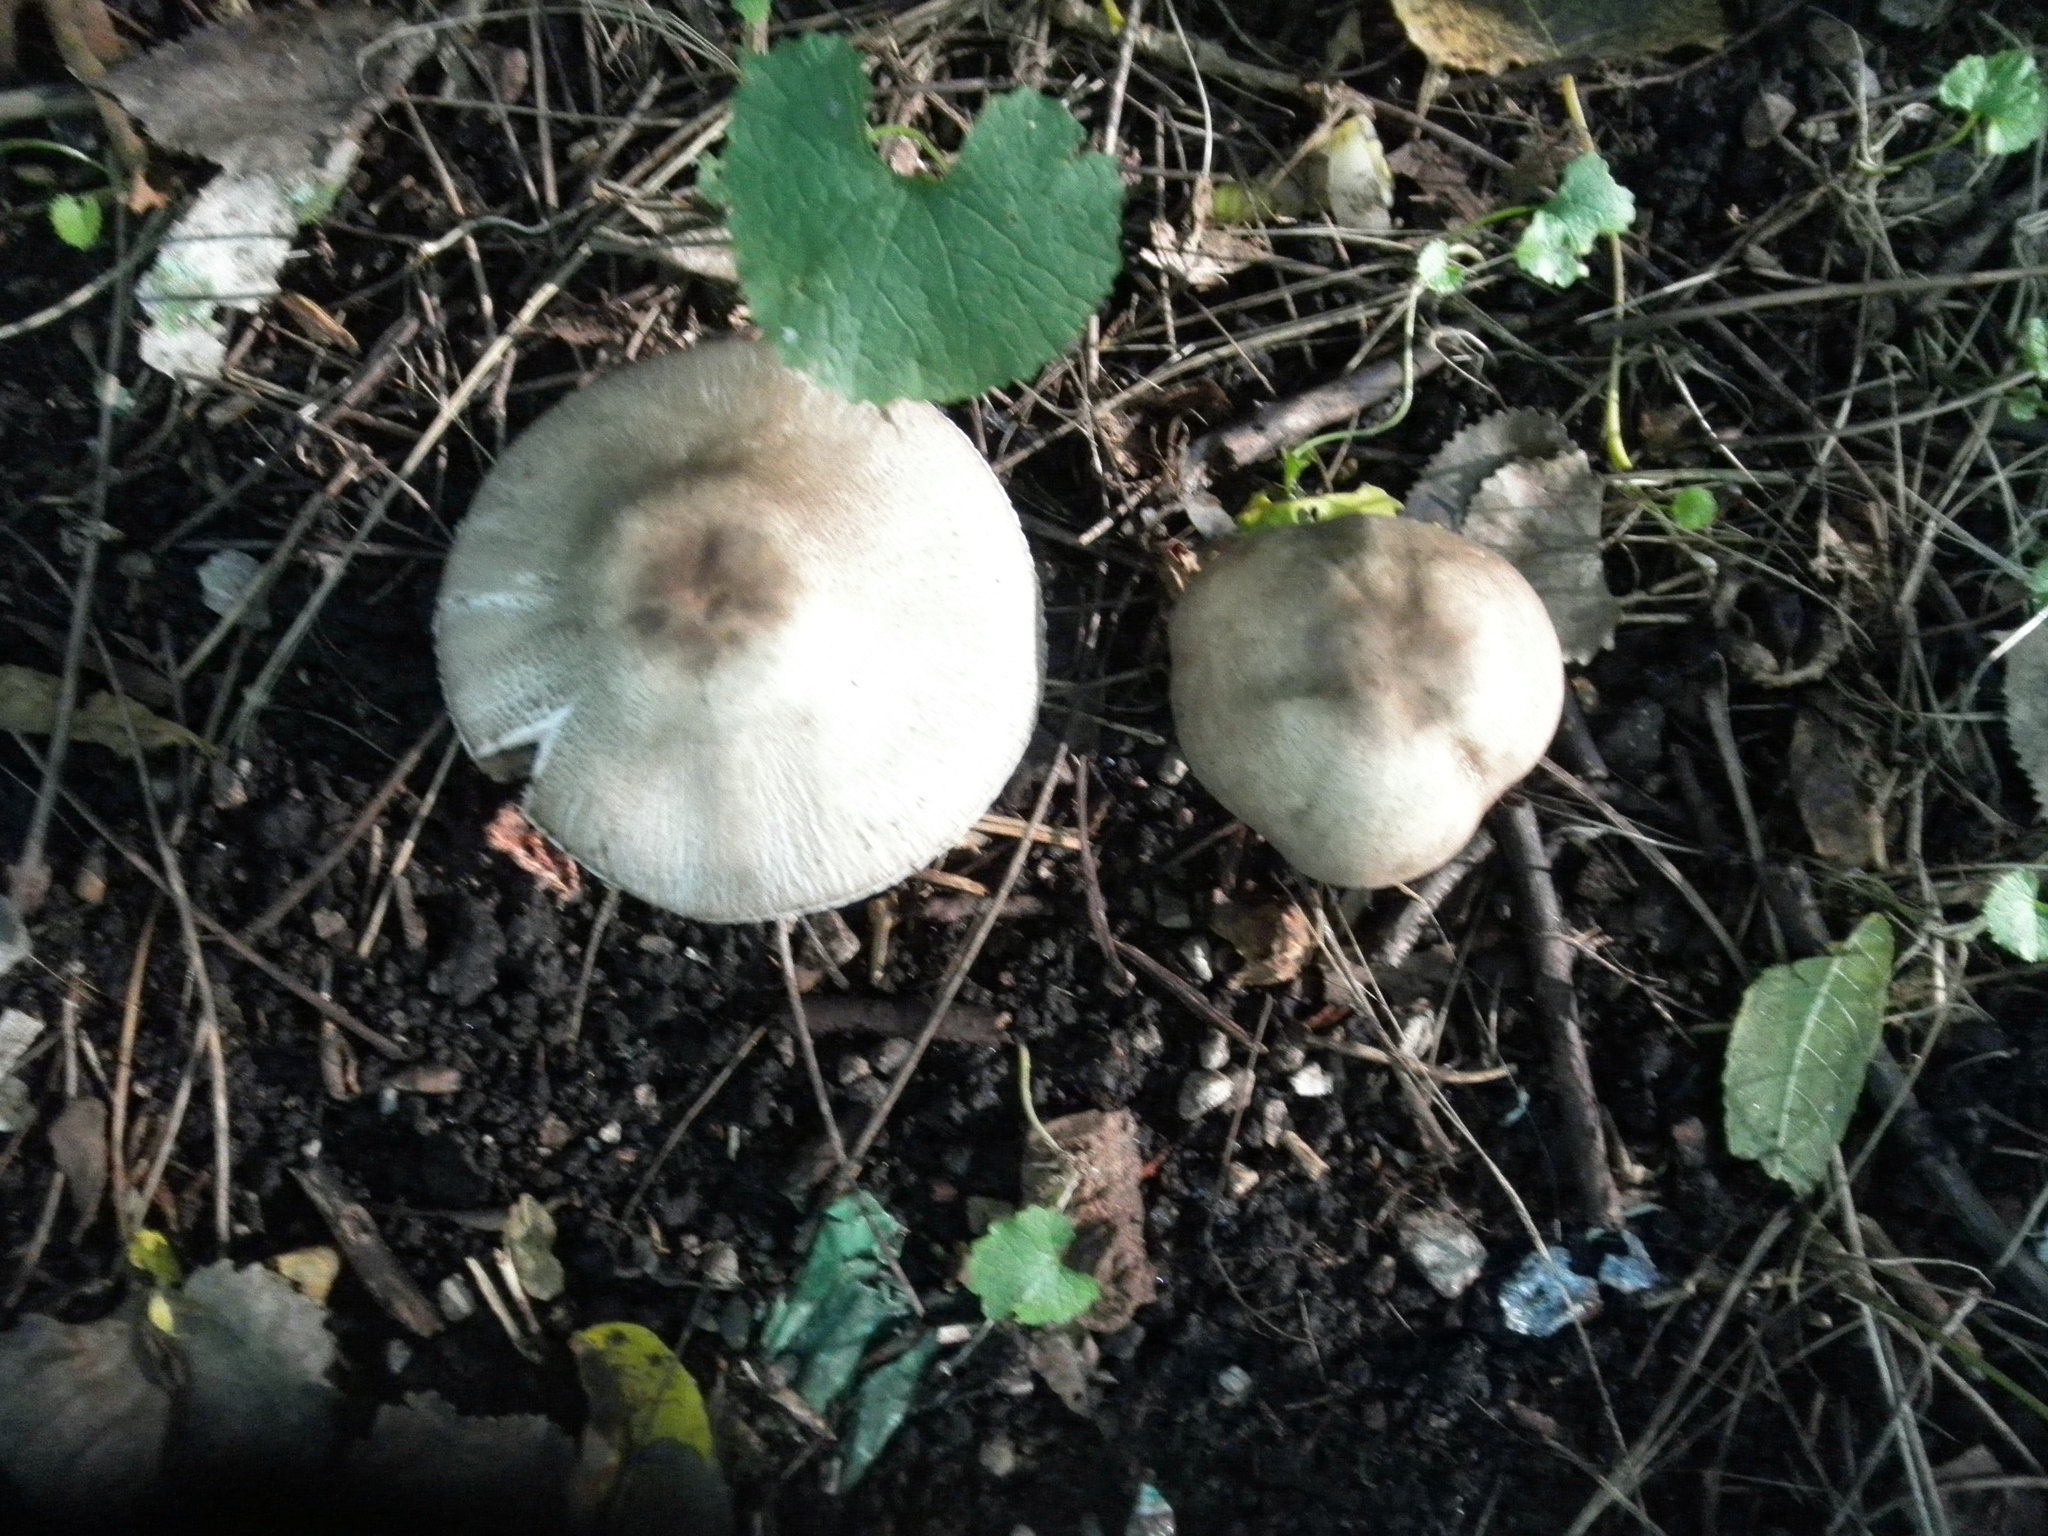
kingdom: Fungi
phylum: Basidiomycota
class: Agaricomycetes
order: Agaricales
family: Agaricaceae
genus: Agaricus
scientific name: Agaricus placomyces
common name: Inky mushroom
